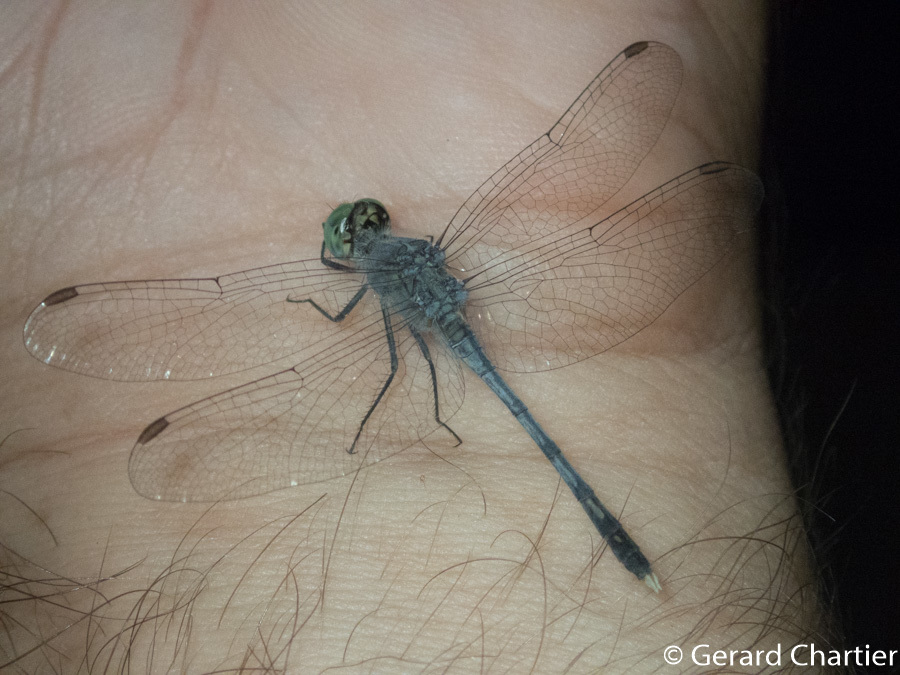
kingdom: Animalia
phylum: Arthropoda
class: Insecta
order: Odonata
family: Libellulidae
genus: Diplacodes
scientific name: Diplacodes trivialis
